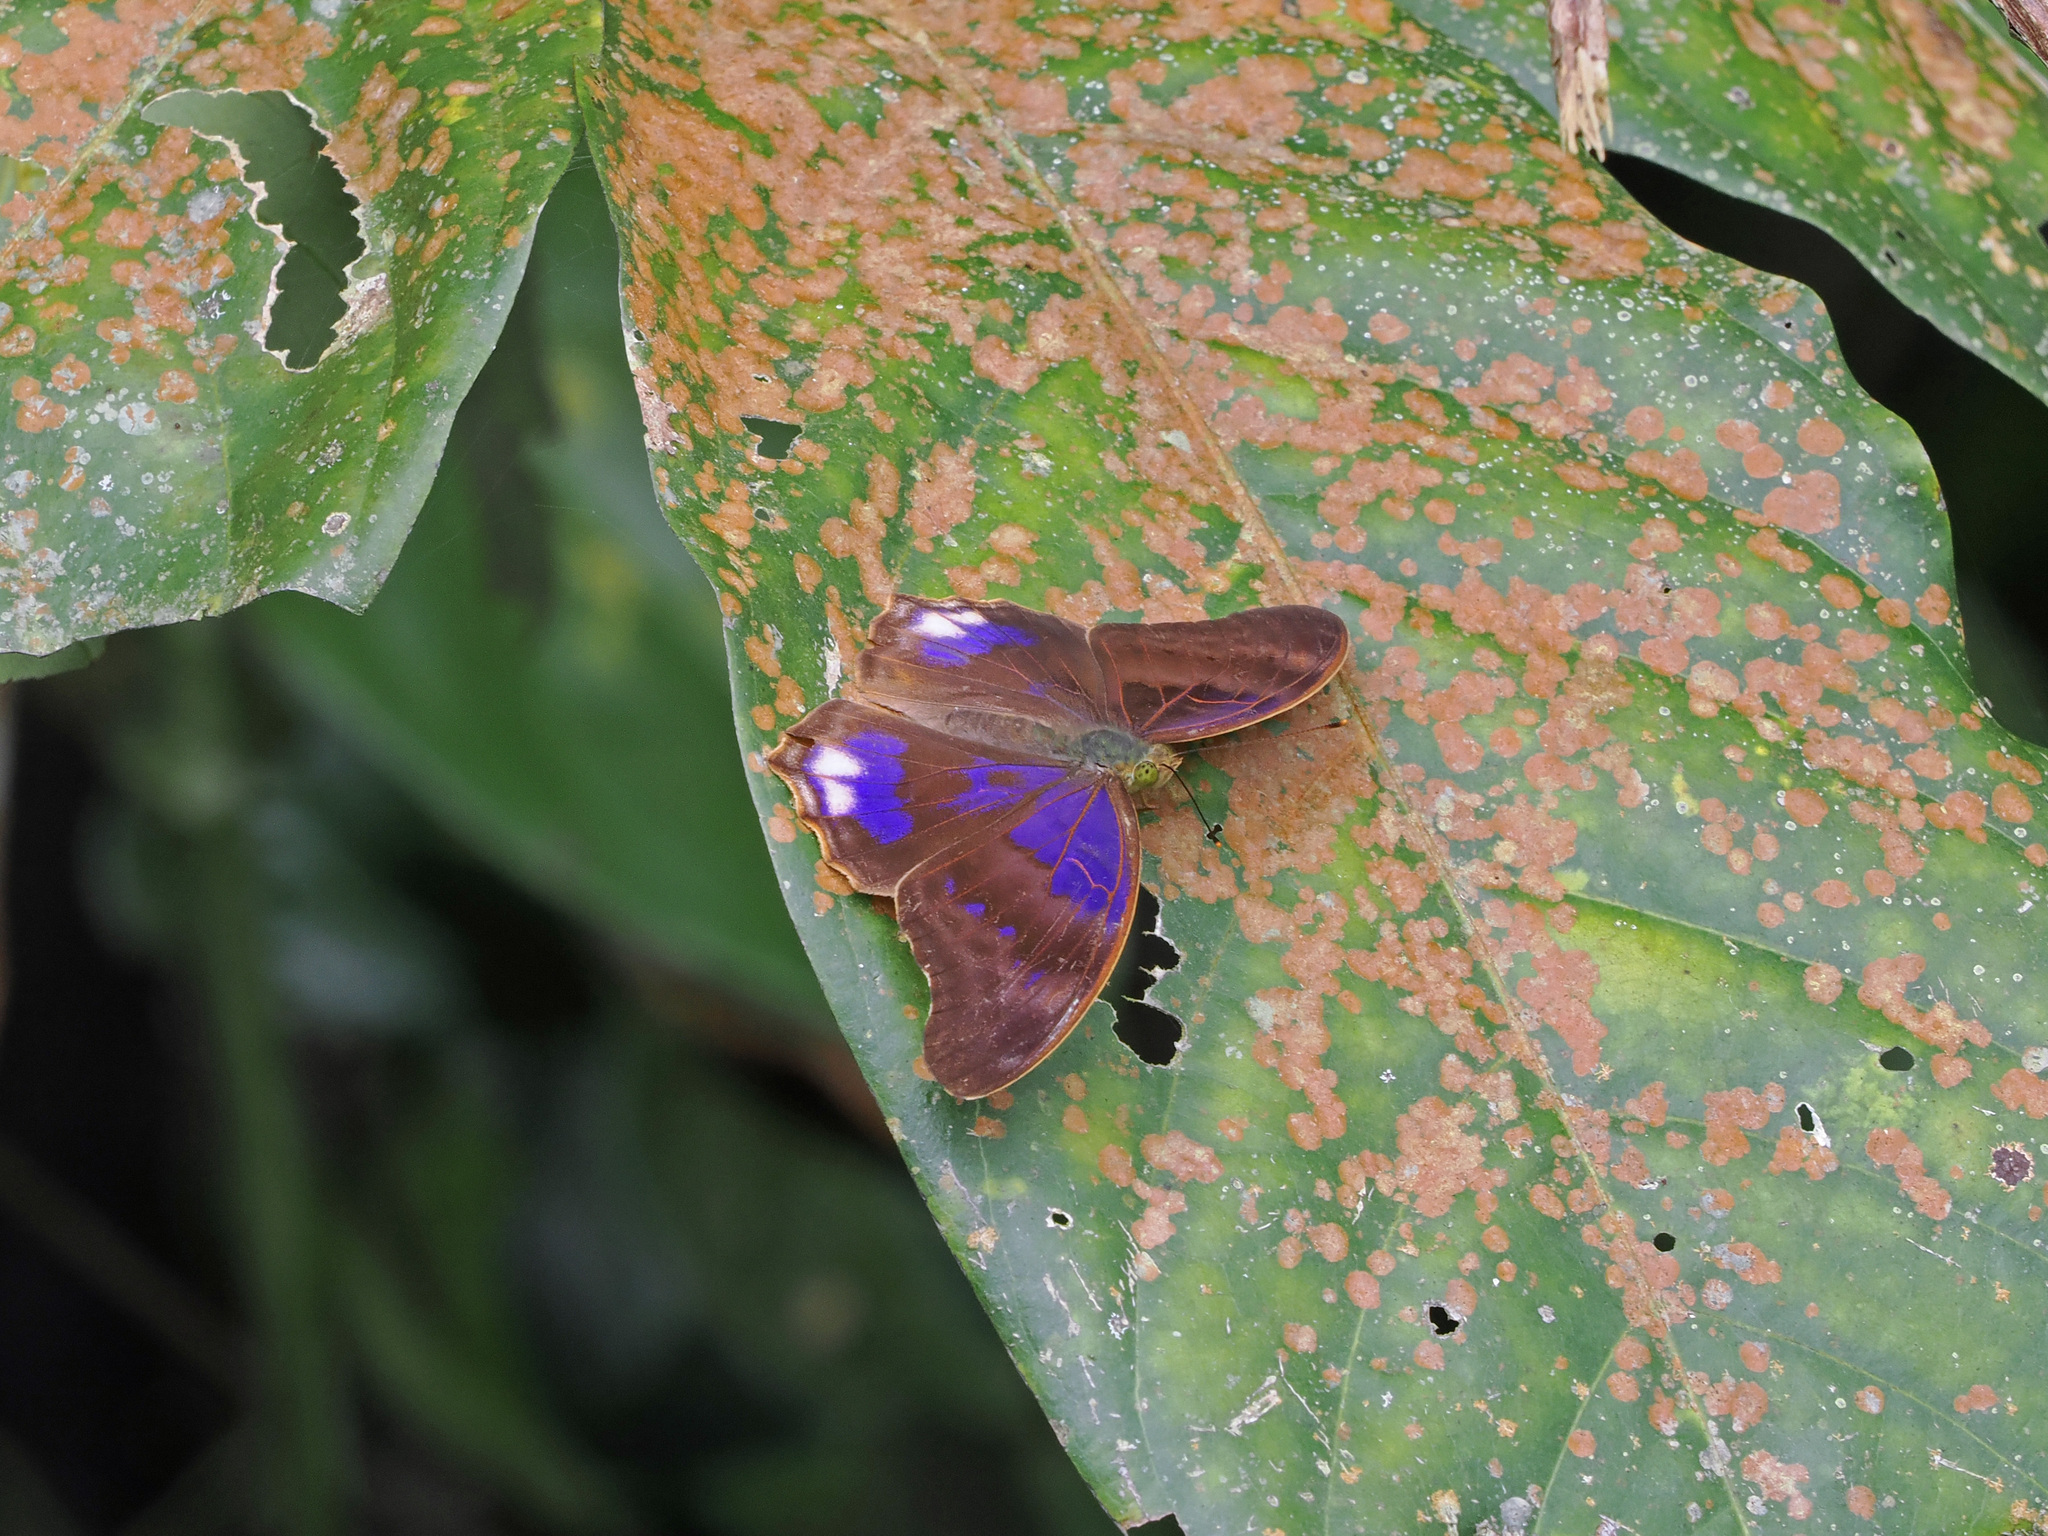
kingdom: Animalia
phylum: Arthropoda
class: Insecta
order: Lepidoptera
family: Nymphalidae
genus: Terinos
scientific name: Terinos terpander
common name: Royal assyrian
